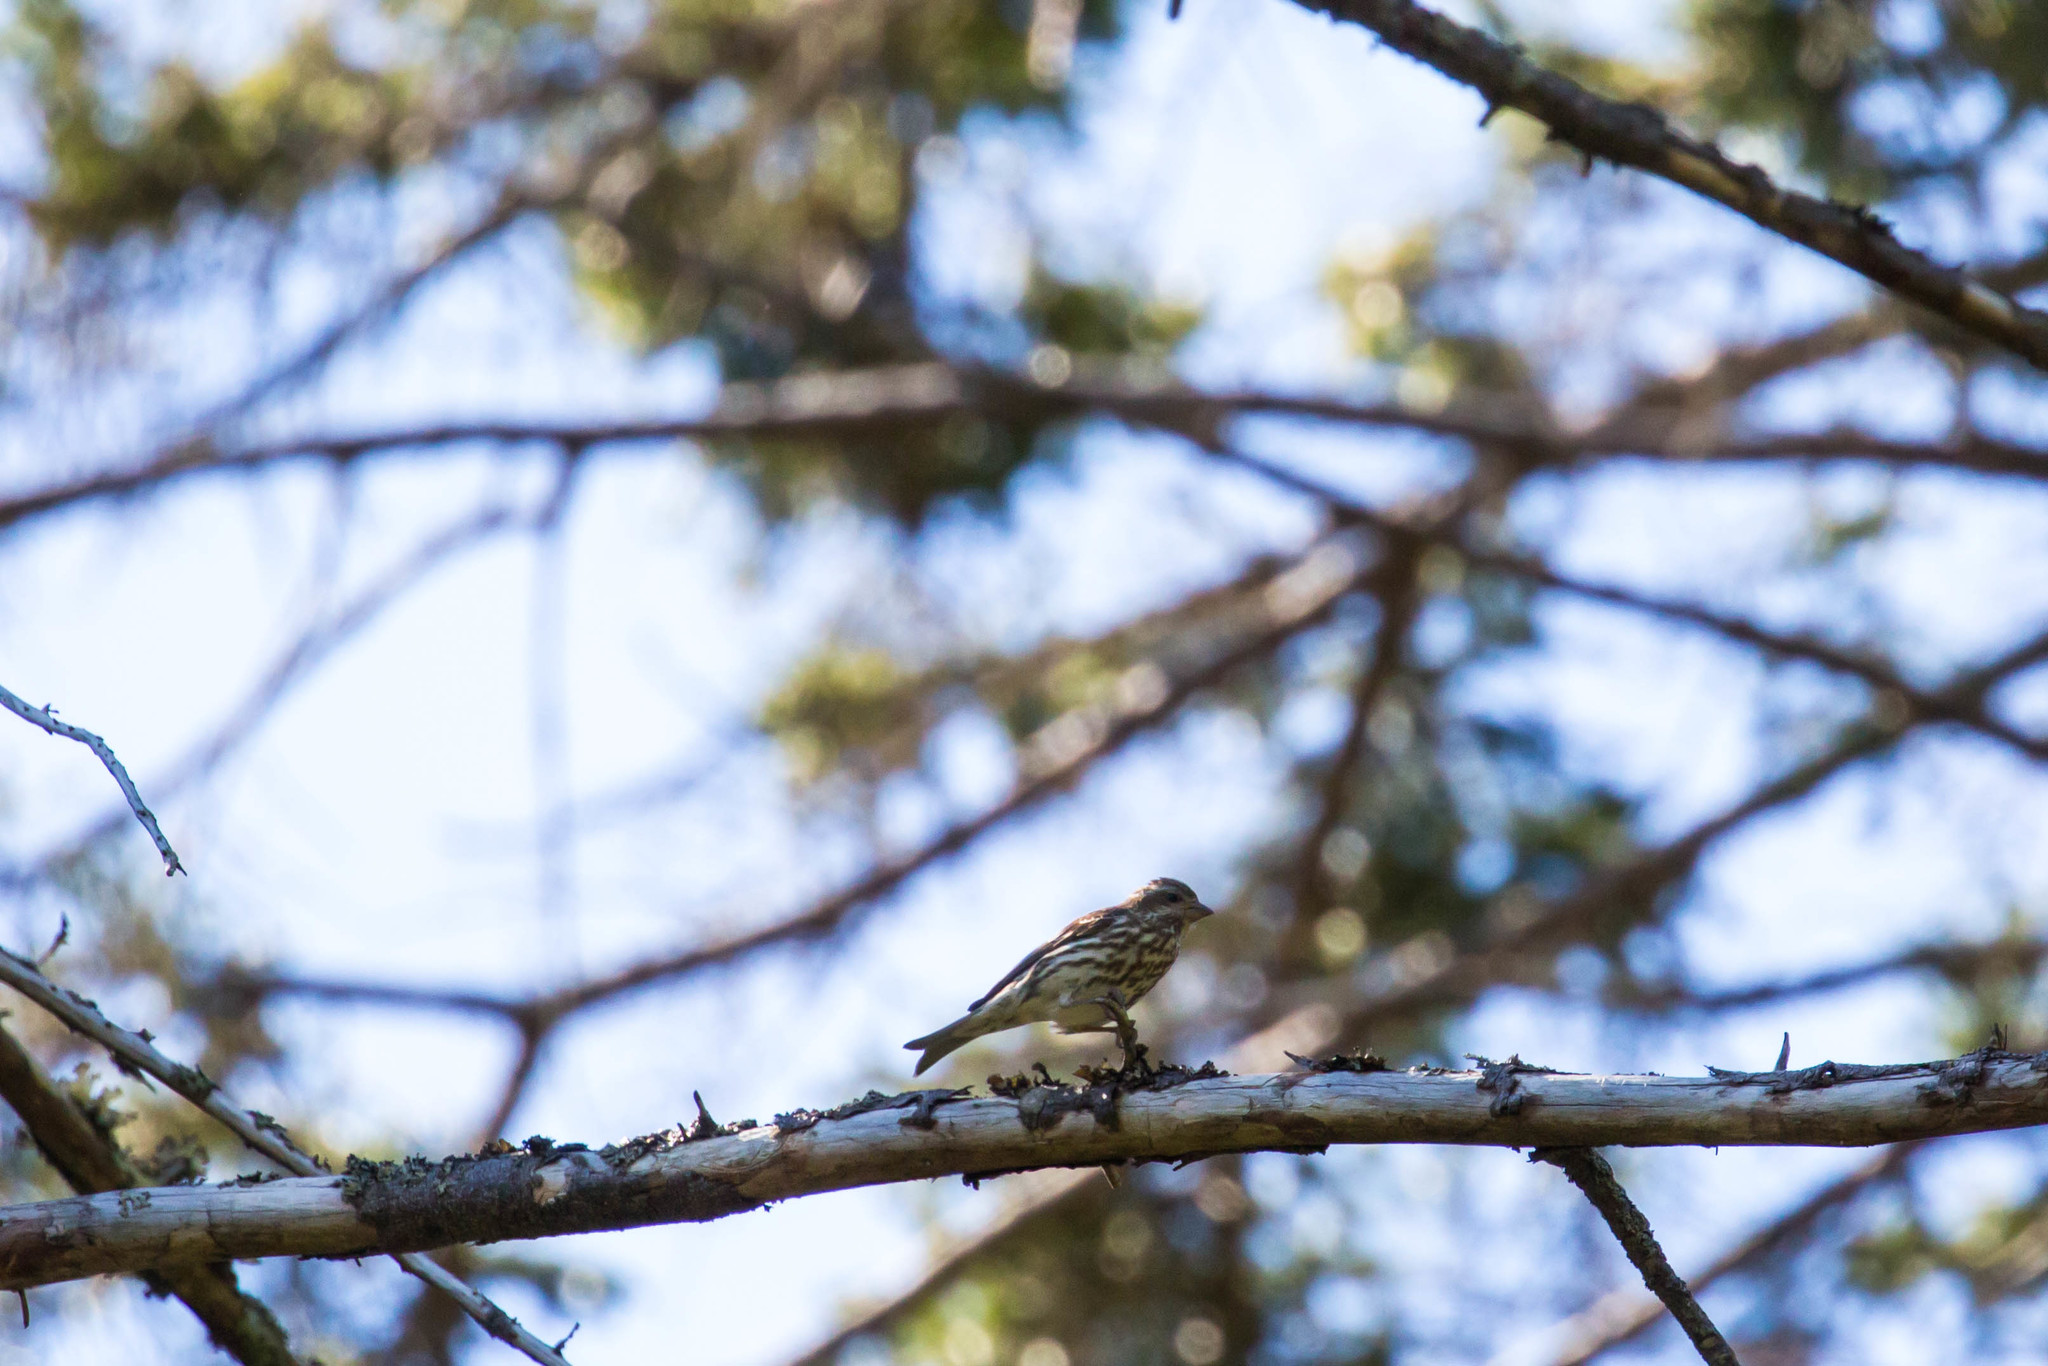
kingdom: Animalia
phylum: Chordata
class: Aves
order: Passeriformes
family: Fringillidae
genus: Haemorhous
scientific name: Haemorhous purpureus
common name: Purple finch
